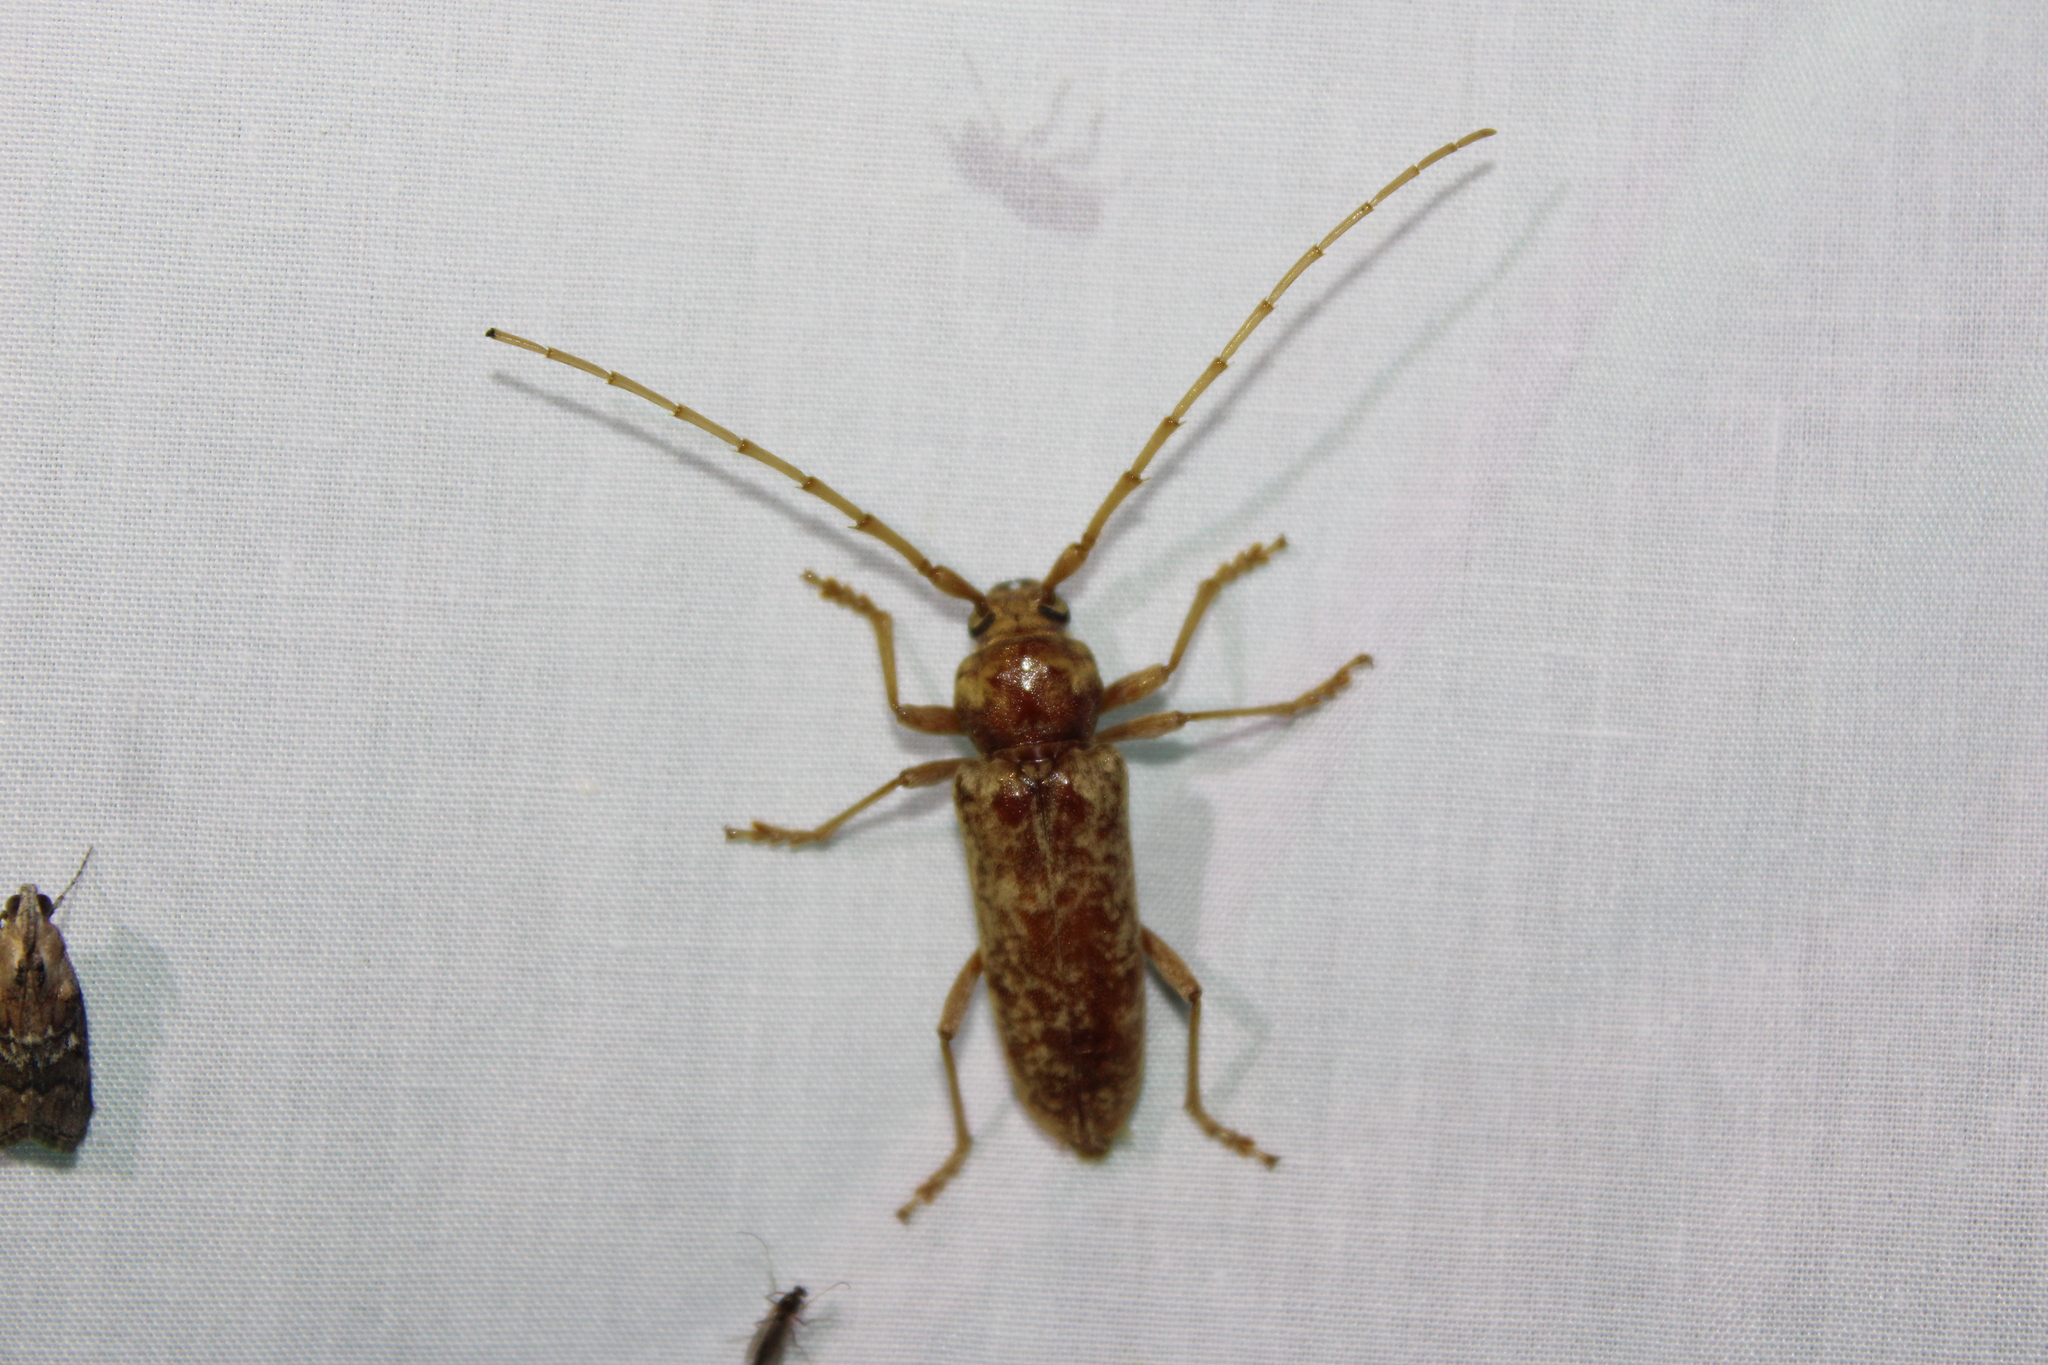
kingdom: Animalia
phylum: Arthropoda
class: Insecta
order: Coleoptera
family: Cerambycidae
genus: Enaphalodes
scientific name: Enaphalodes rufulus
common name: Red oak borer
